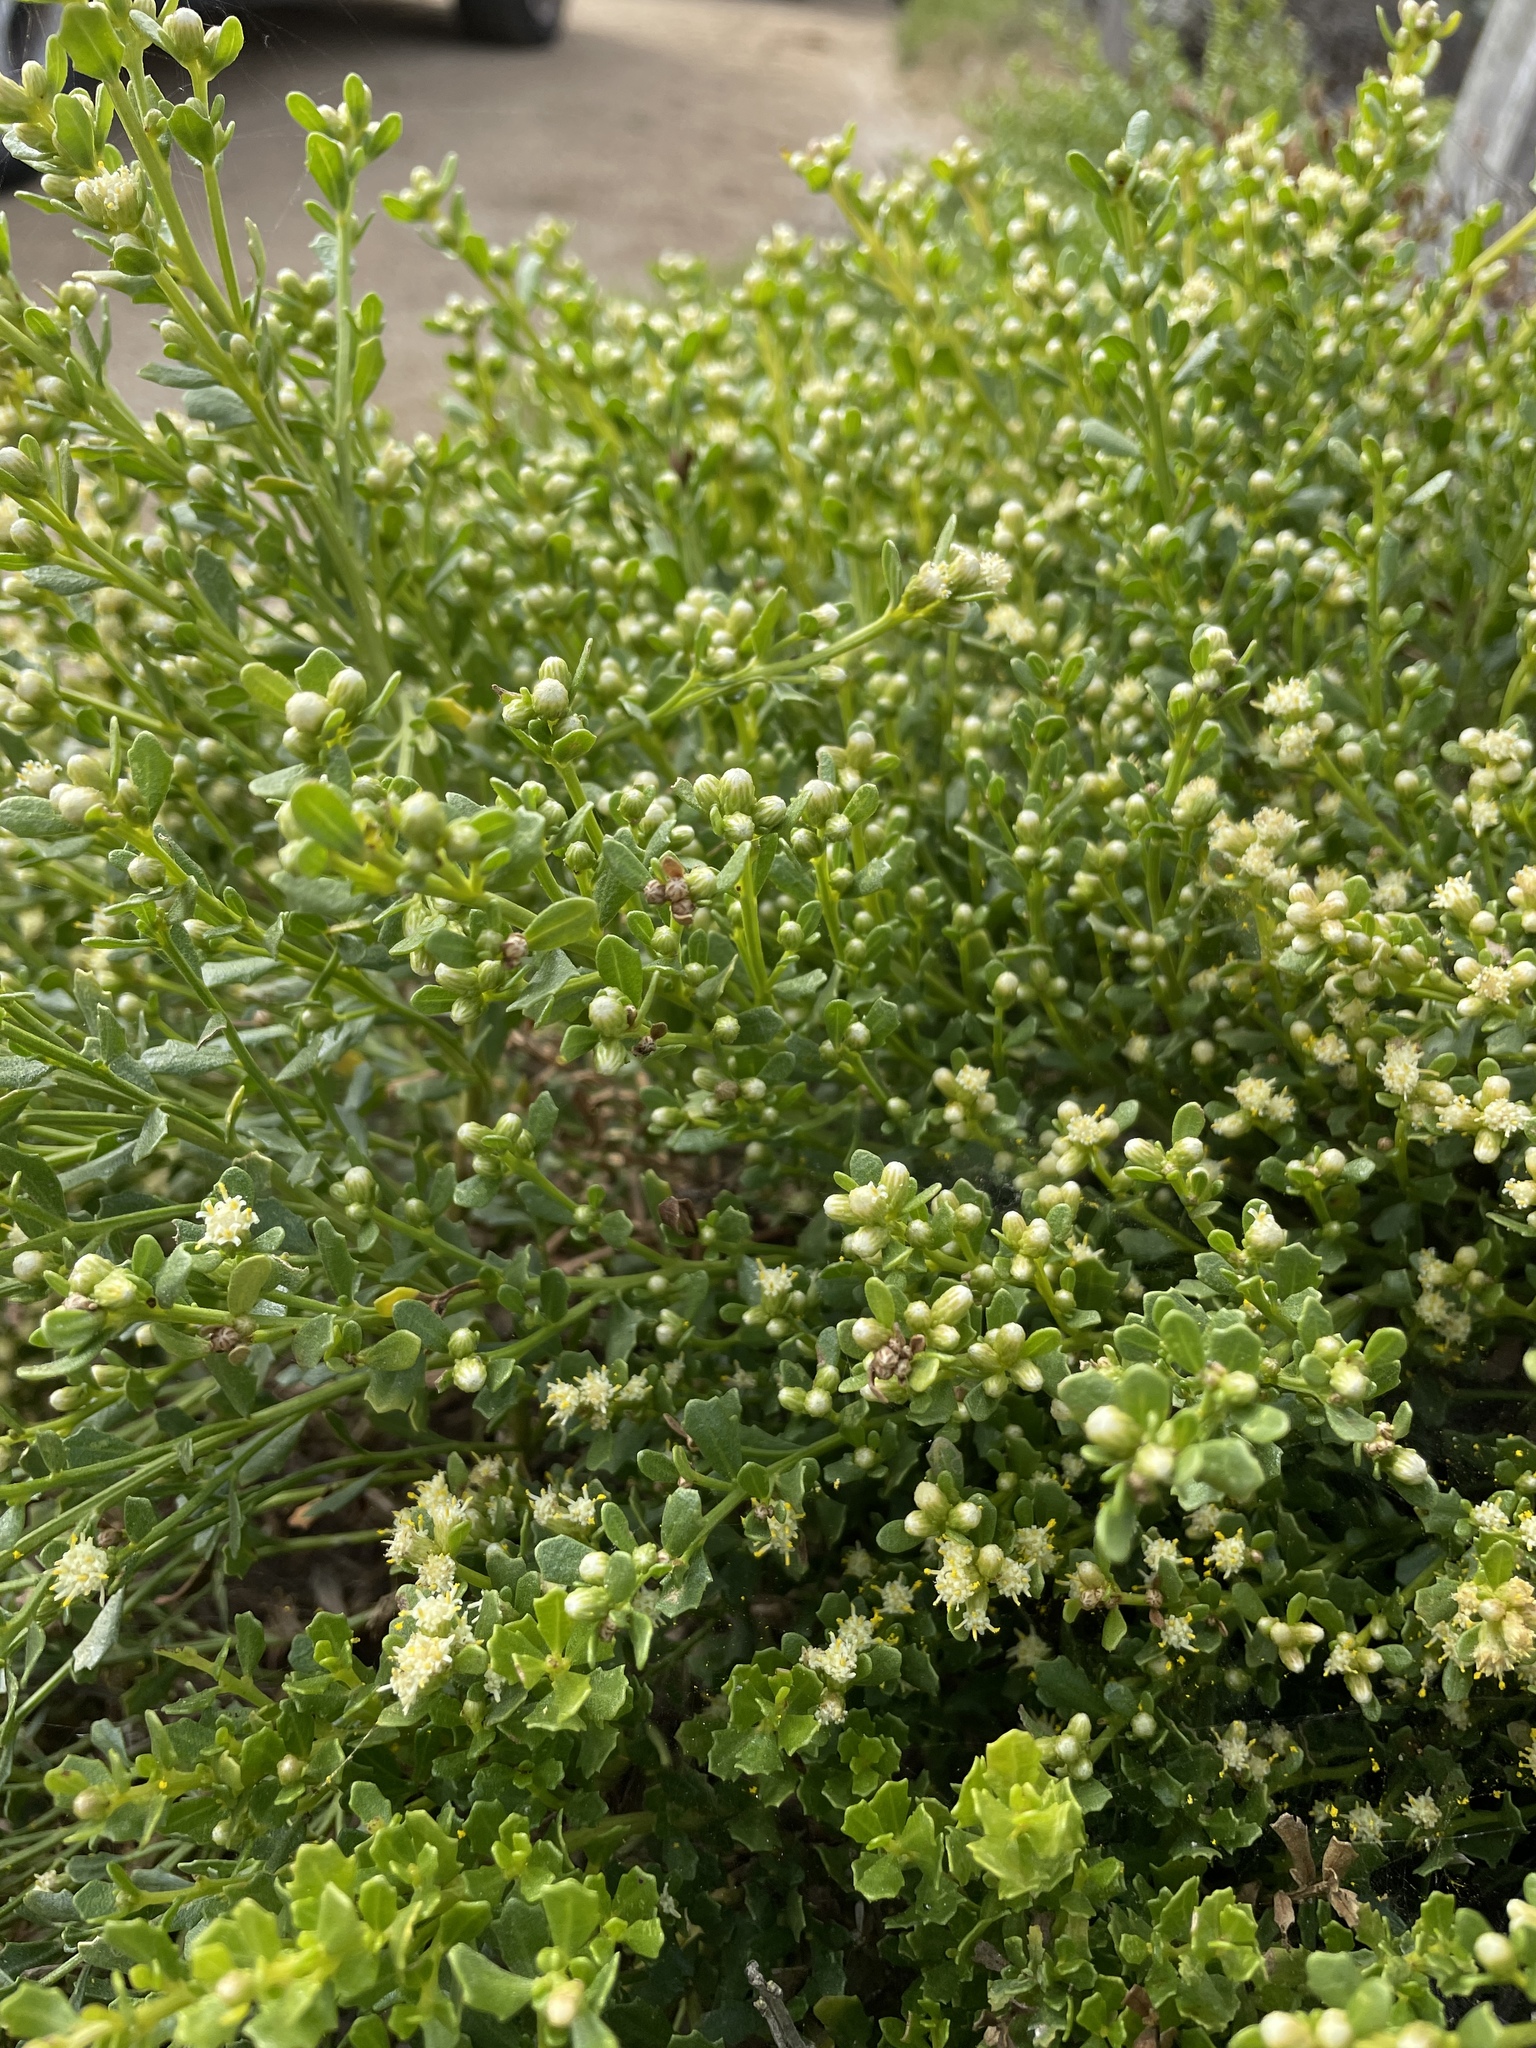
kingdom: Plantae
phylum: Tracheophyta
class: Magnoliopsida
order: Asterales
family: Asteraceae
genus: Baccharis
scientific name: Baccharis pilularis
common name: Coyotebrush
